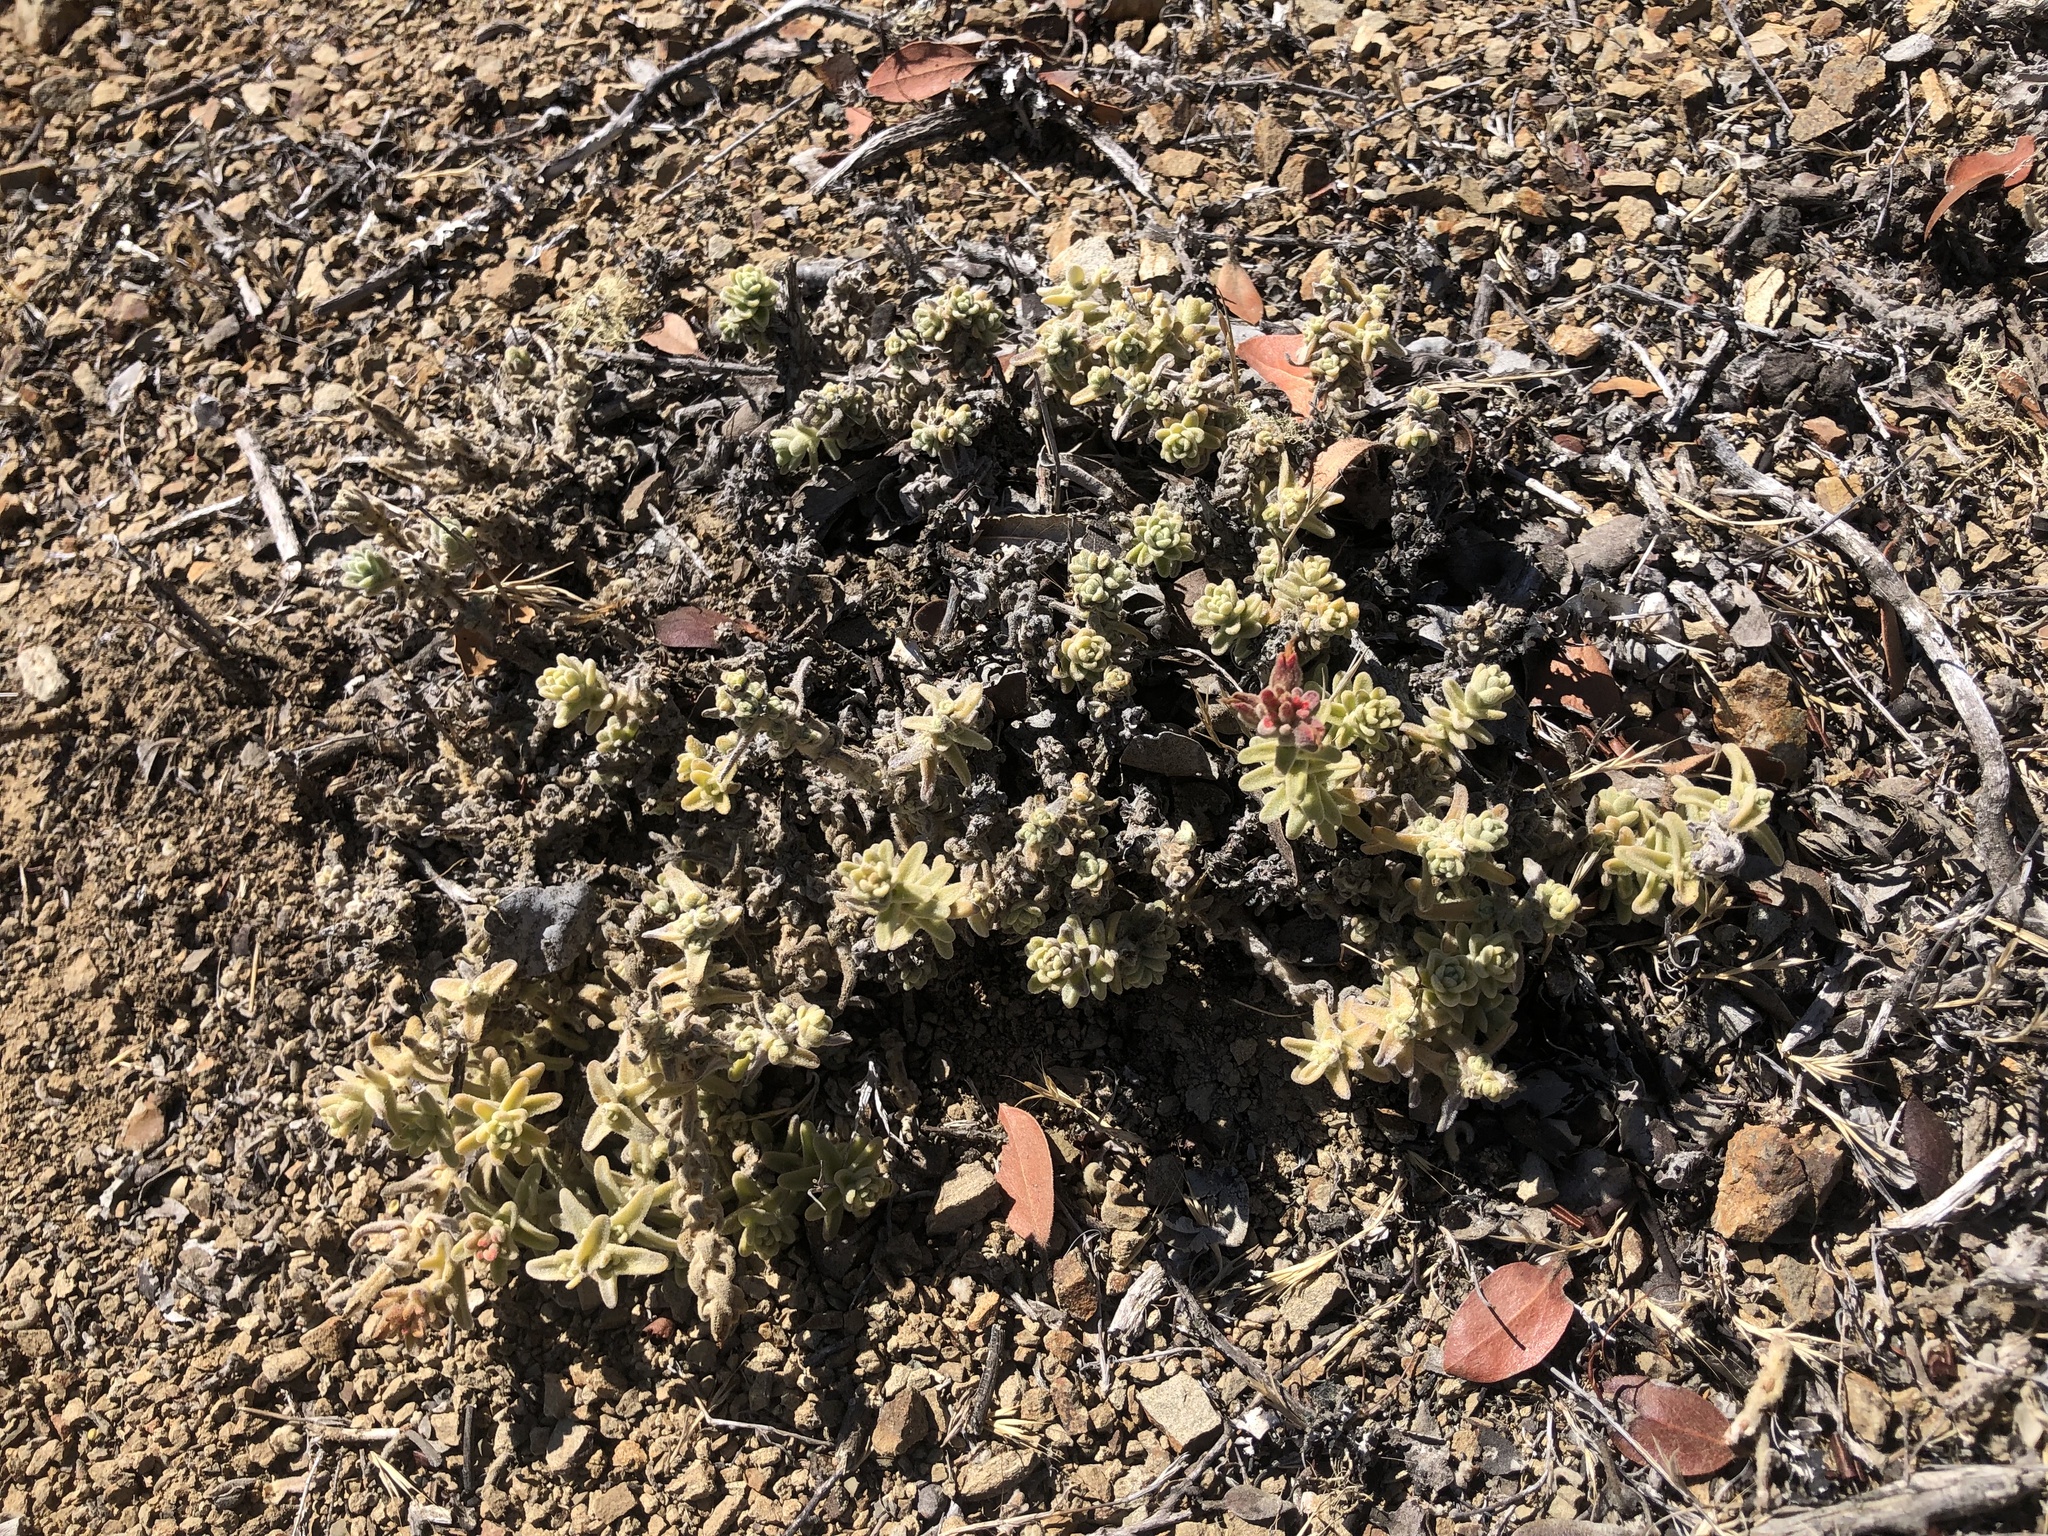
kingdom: Plantae
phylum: Tracheophyta
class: Magnoliopsida
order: Lamiales
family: Orobanchaceae
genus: Castilleja
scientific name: Castilleja foliolosa
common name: Woolly indian paintbrush
